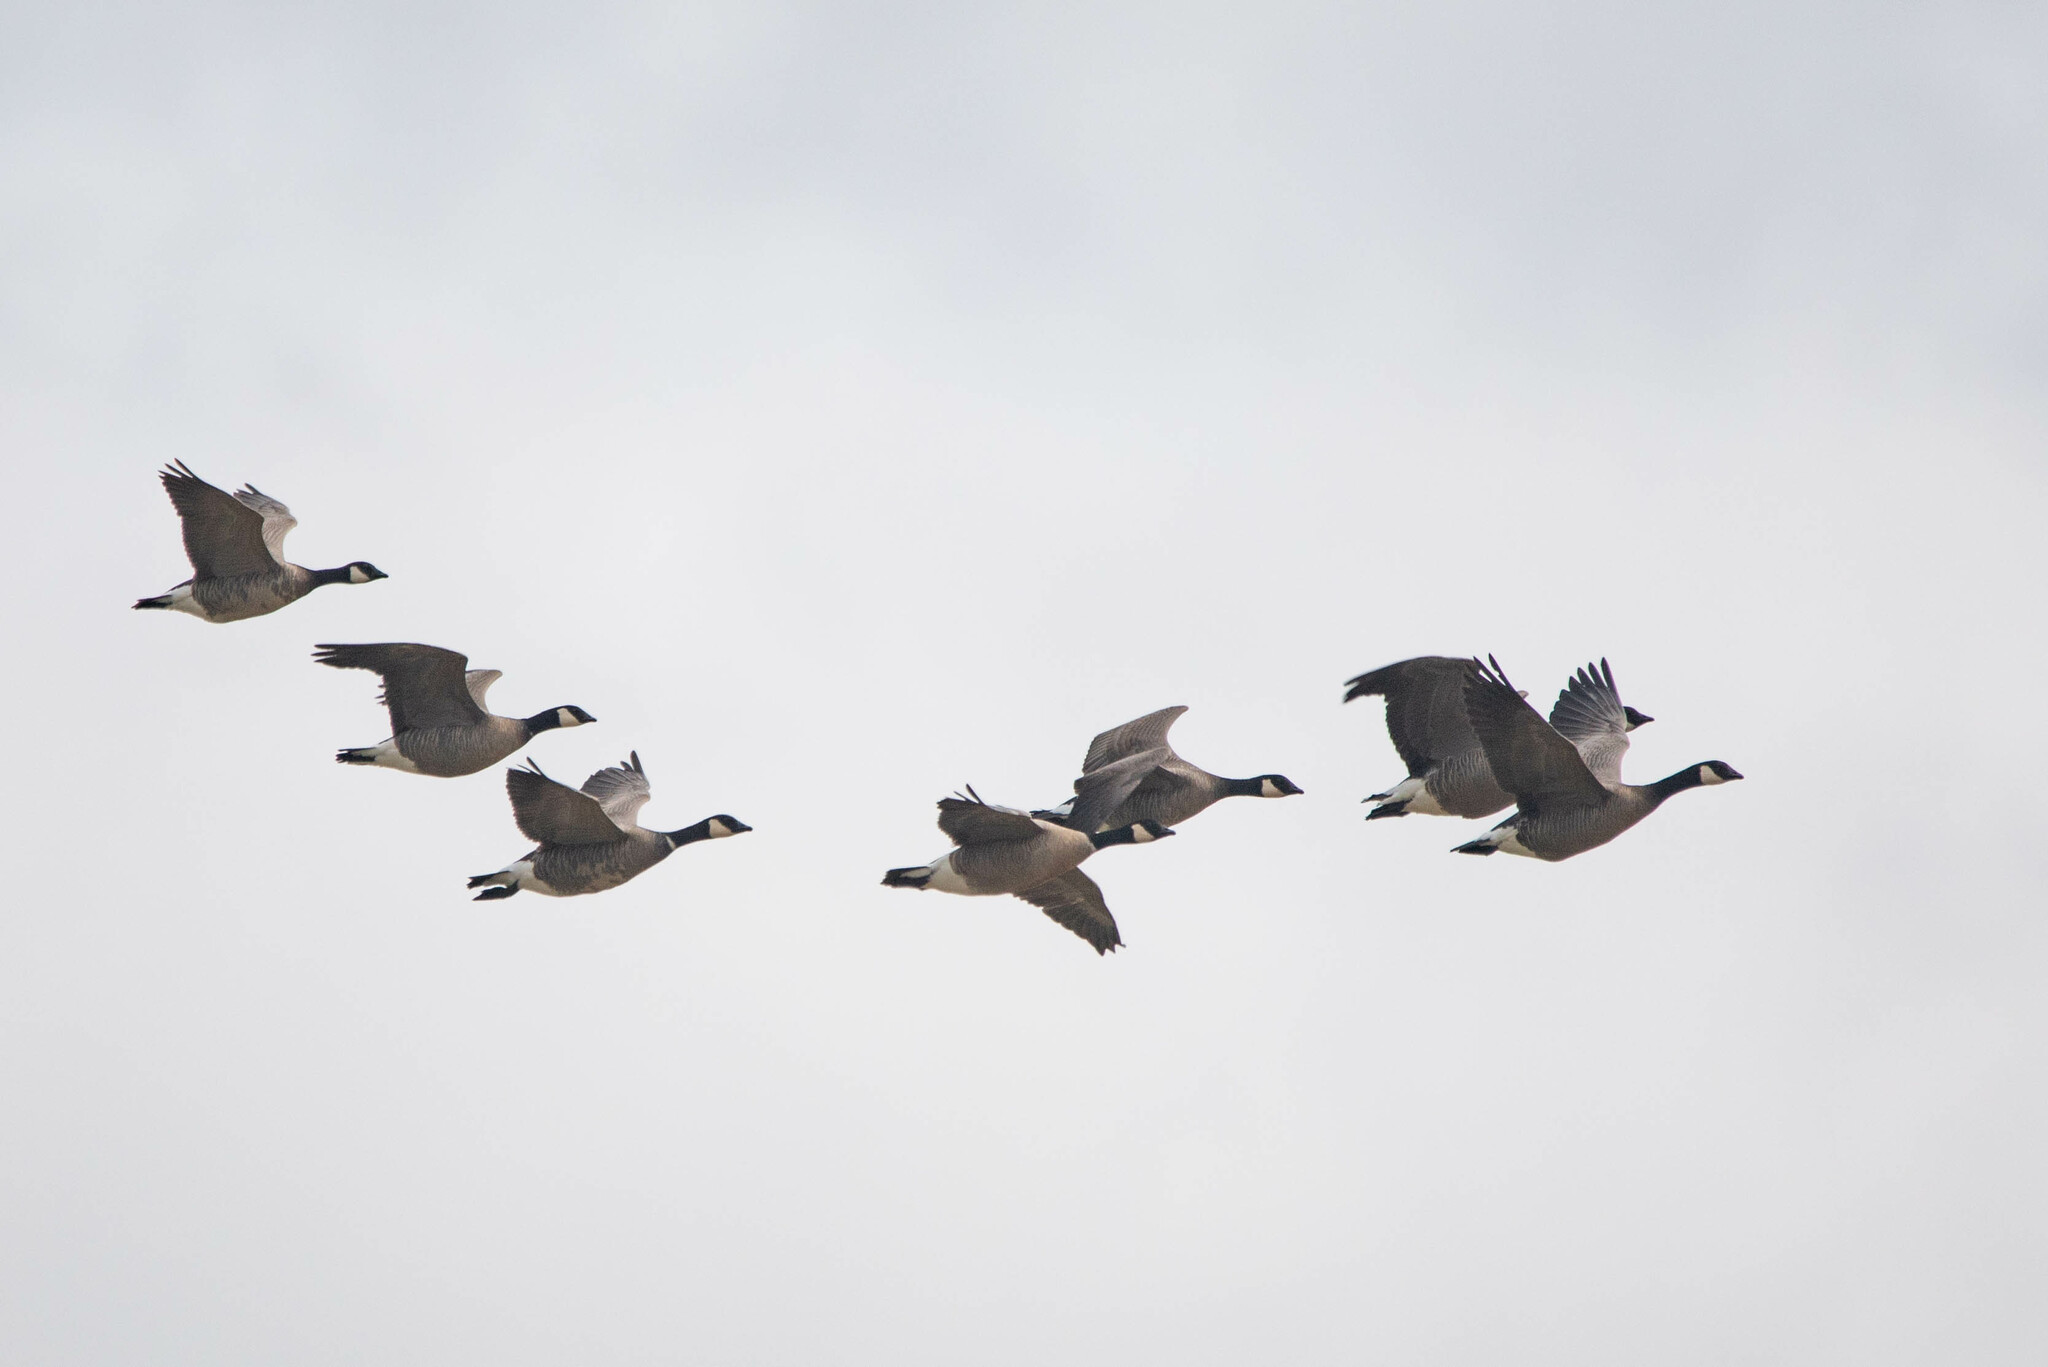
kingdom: Animalia
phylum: Chordata
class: Aves
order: Anseriformes
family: Anatidae
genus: Branta
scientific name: Branta hutchinsii
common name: Cackling goose
